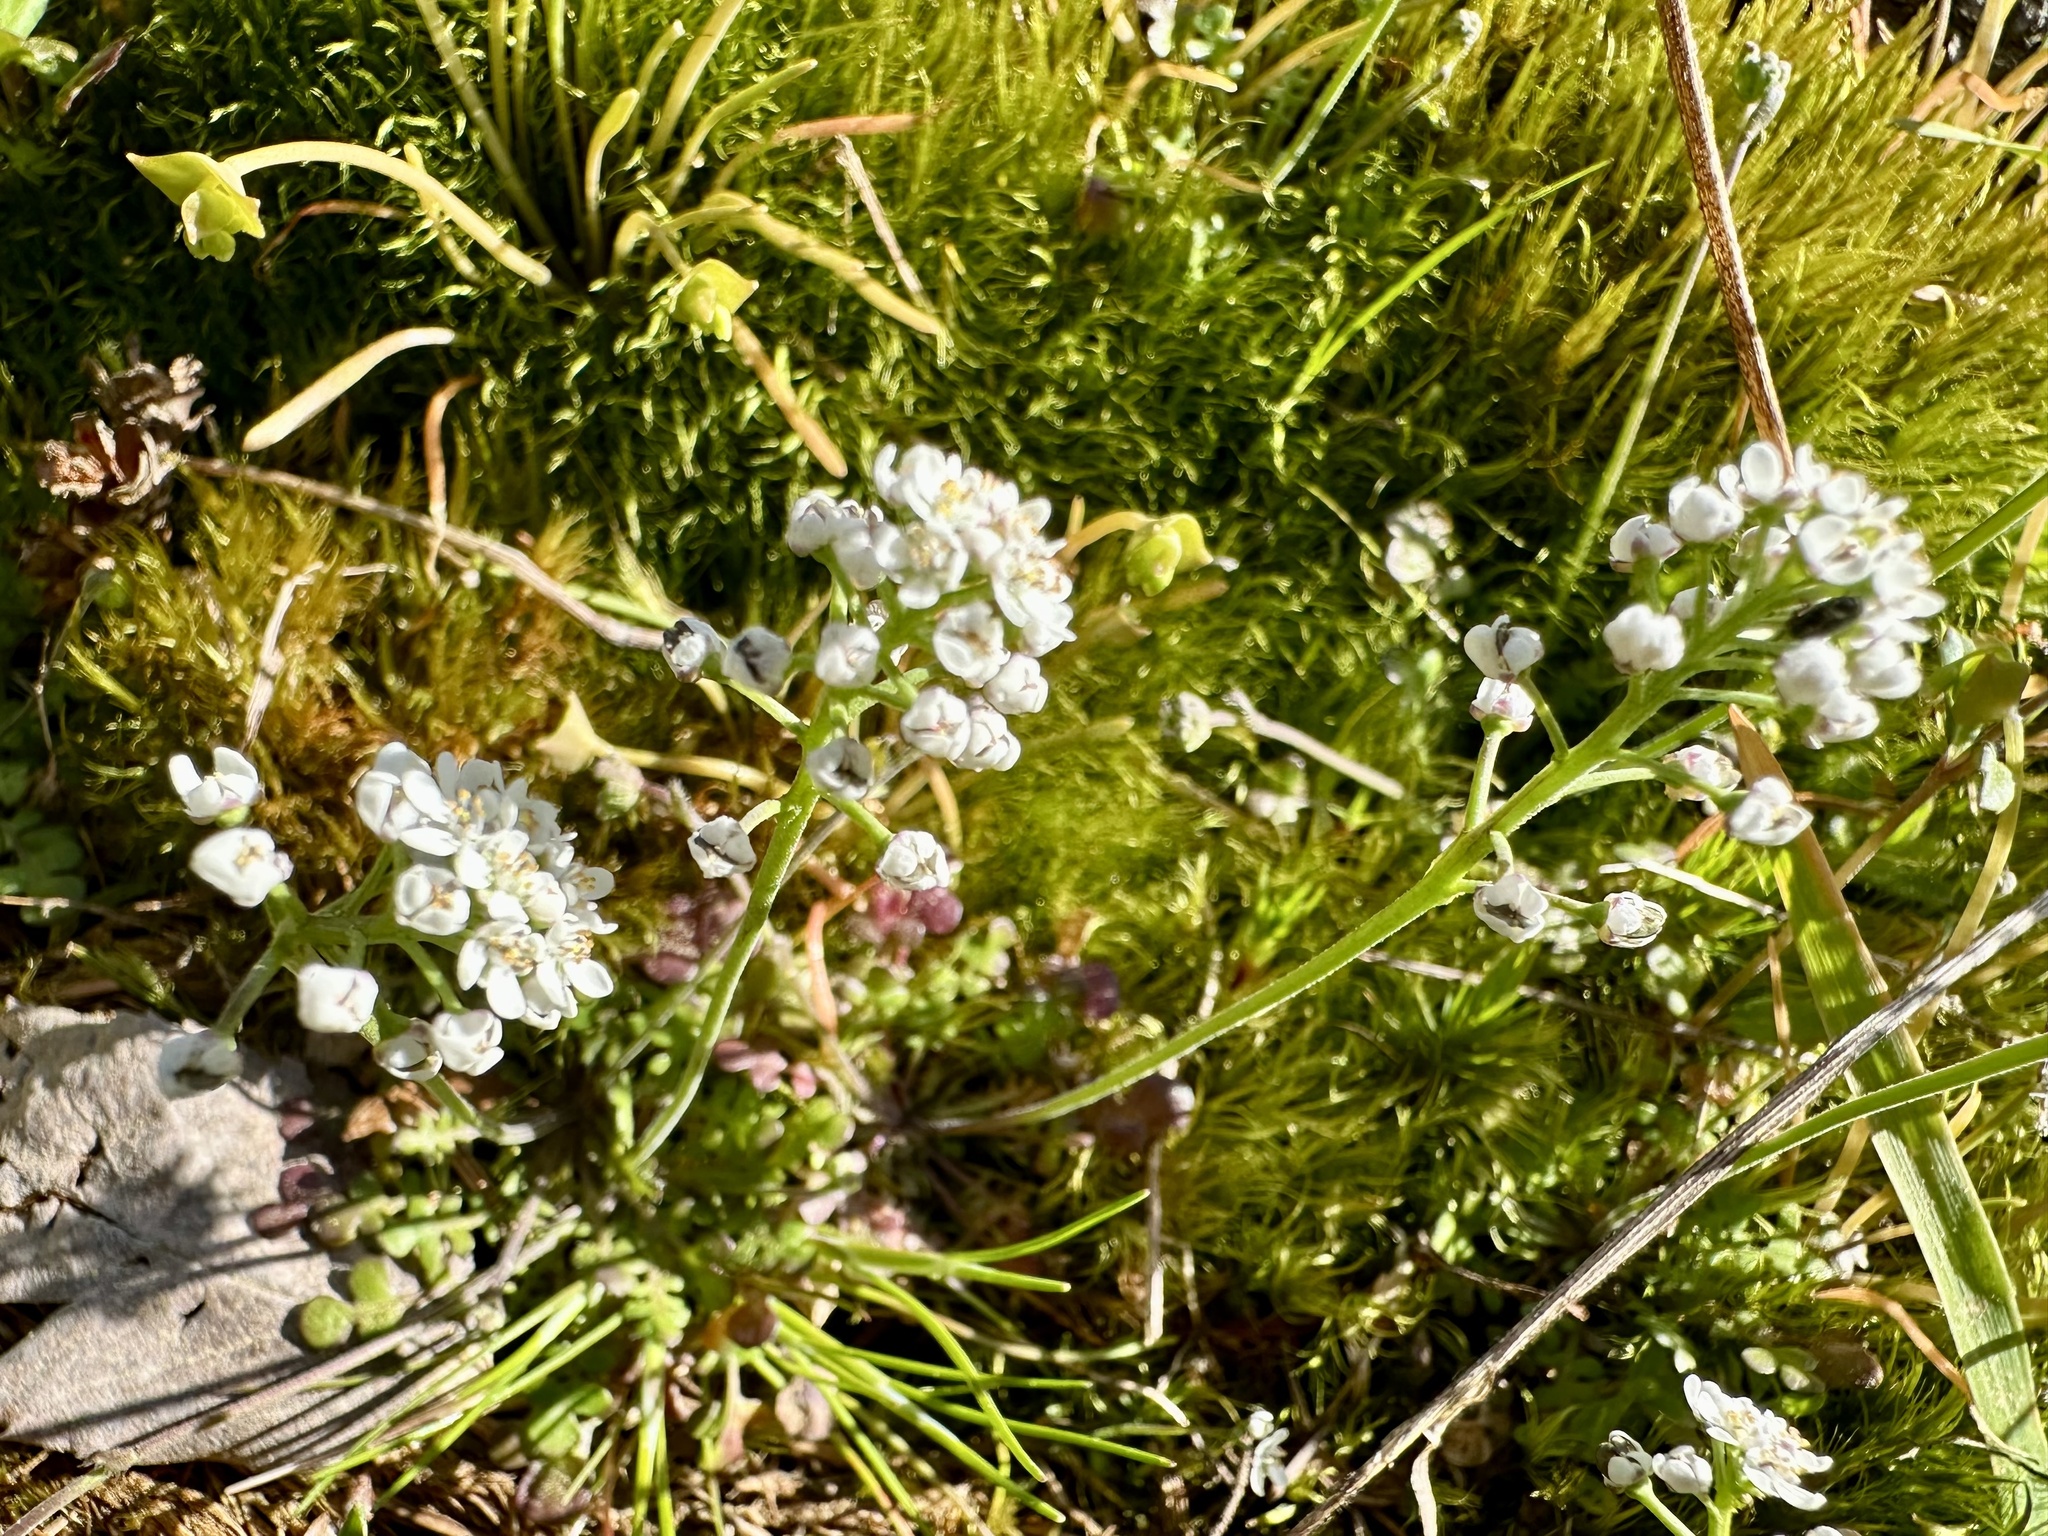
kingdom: Plantae
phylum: Tracheophyta
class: Magnoliopsida
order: Brassicales
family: Brassicaceae
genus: Teesdalia
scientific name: Teesdalia nudicaulis
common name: Shepherd's cress
